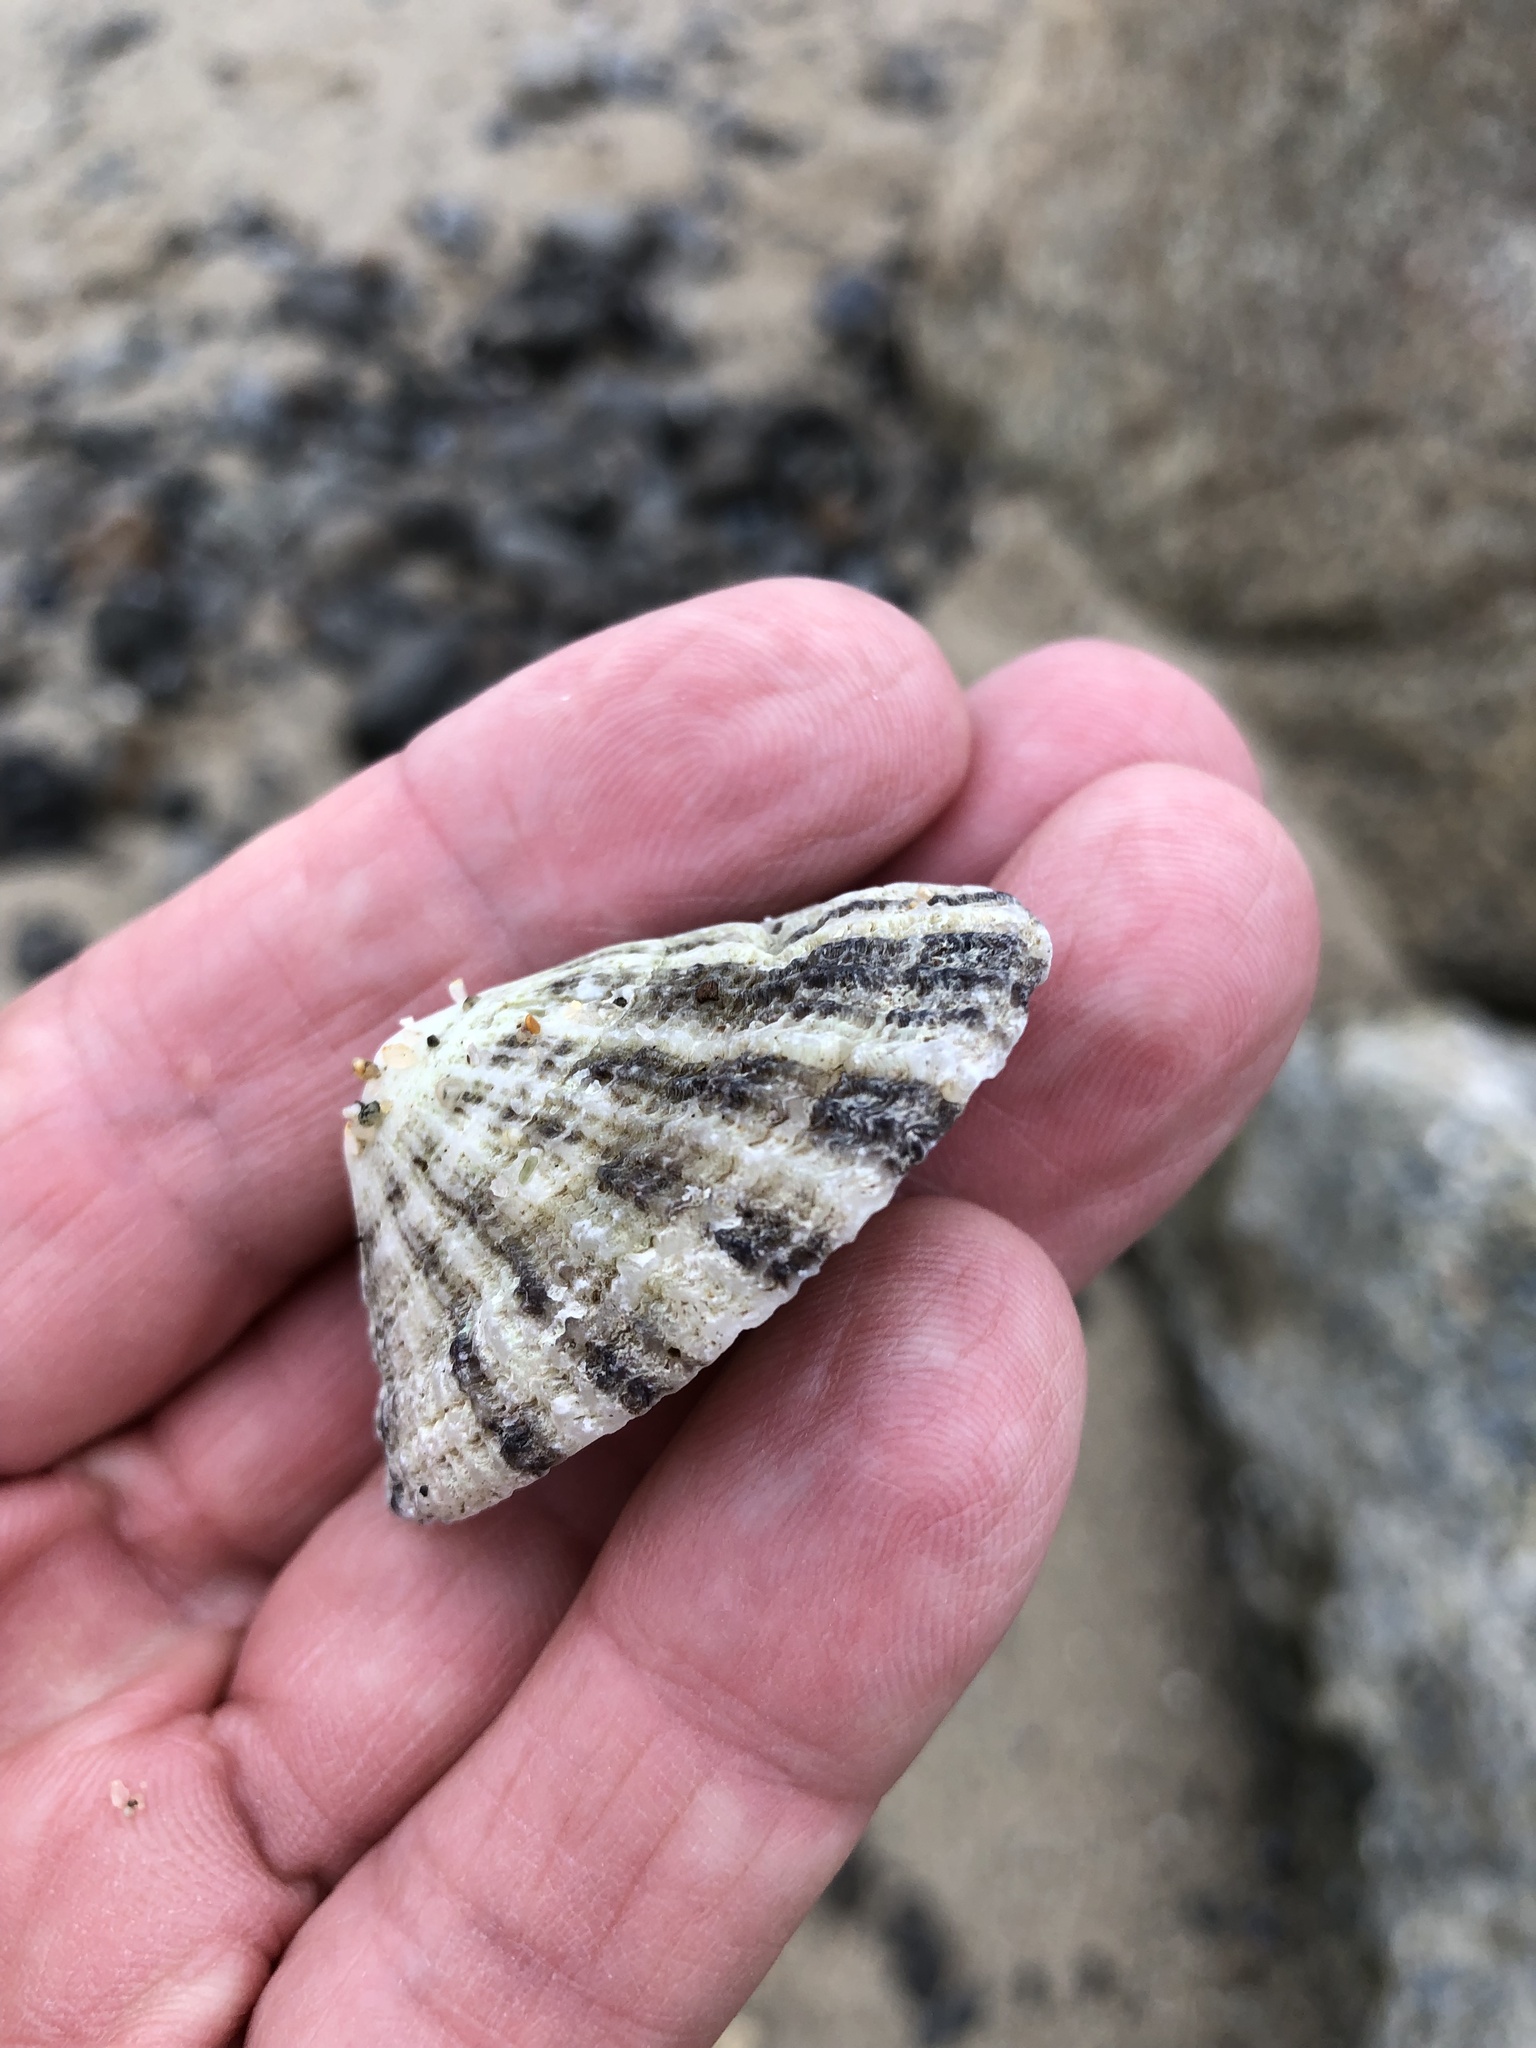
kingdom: Animalia
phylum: Mollusca
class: Gastropoda
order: Lepetellida
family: Fissurellidae
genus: Diodora
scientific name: Diodora aspera
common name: Rough keyhole limpet
